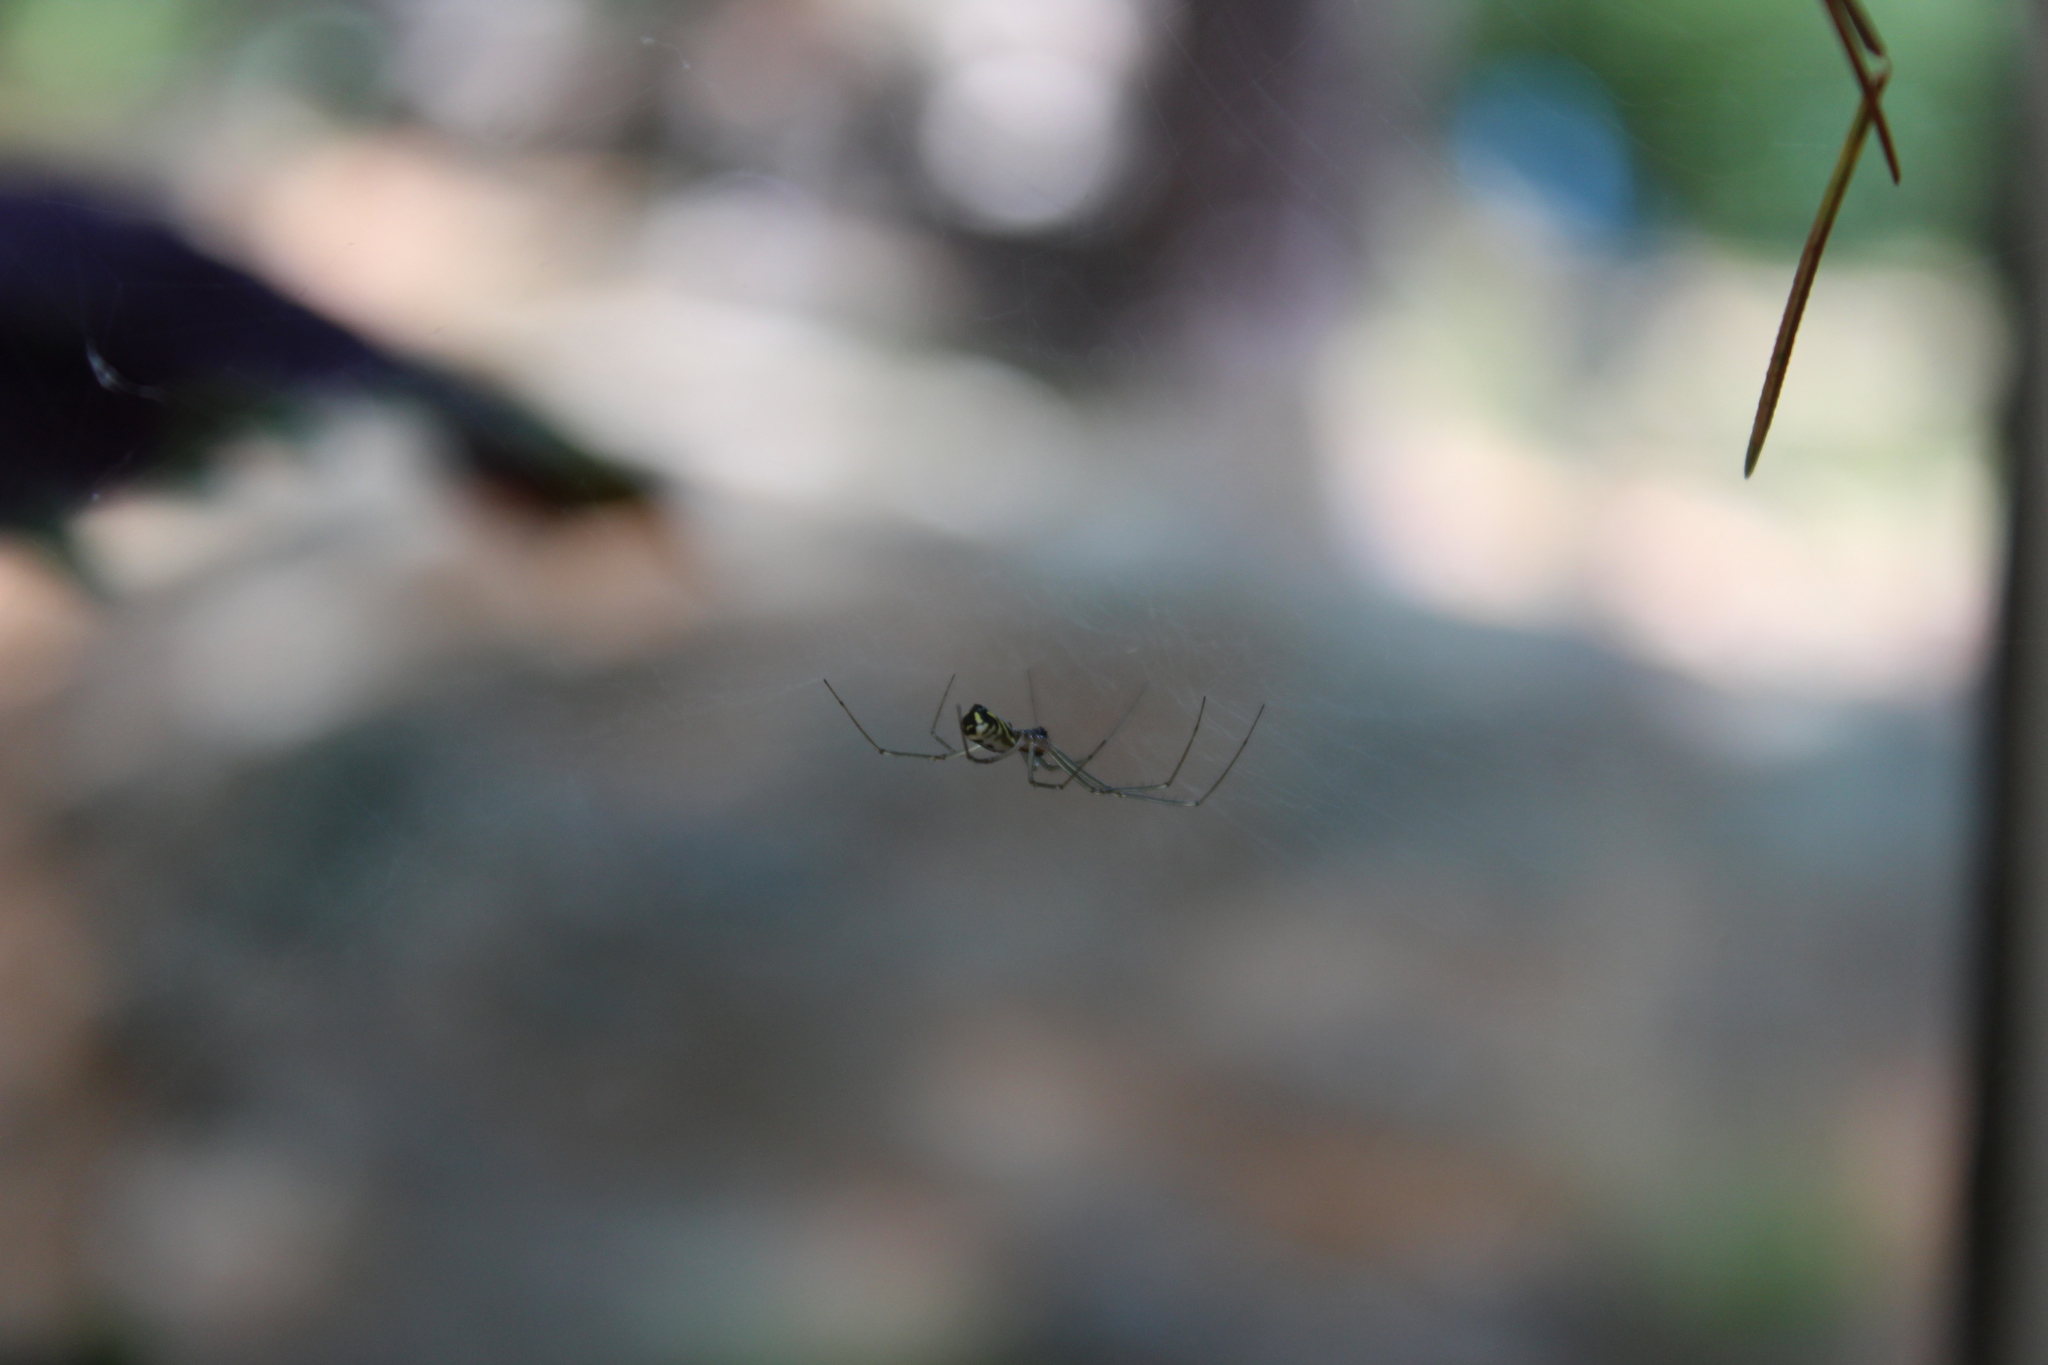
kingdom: Animalia
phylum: Arthropoda
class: Arachnida
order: Araneae
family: Linyphiidae
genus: Neriene
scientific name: Neriene radiata
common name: Filmy dome spider
